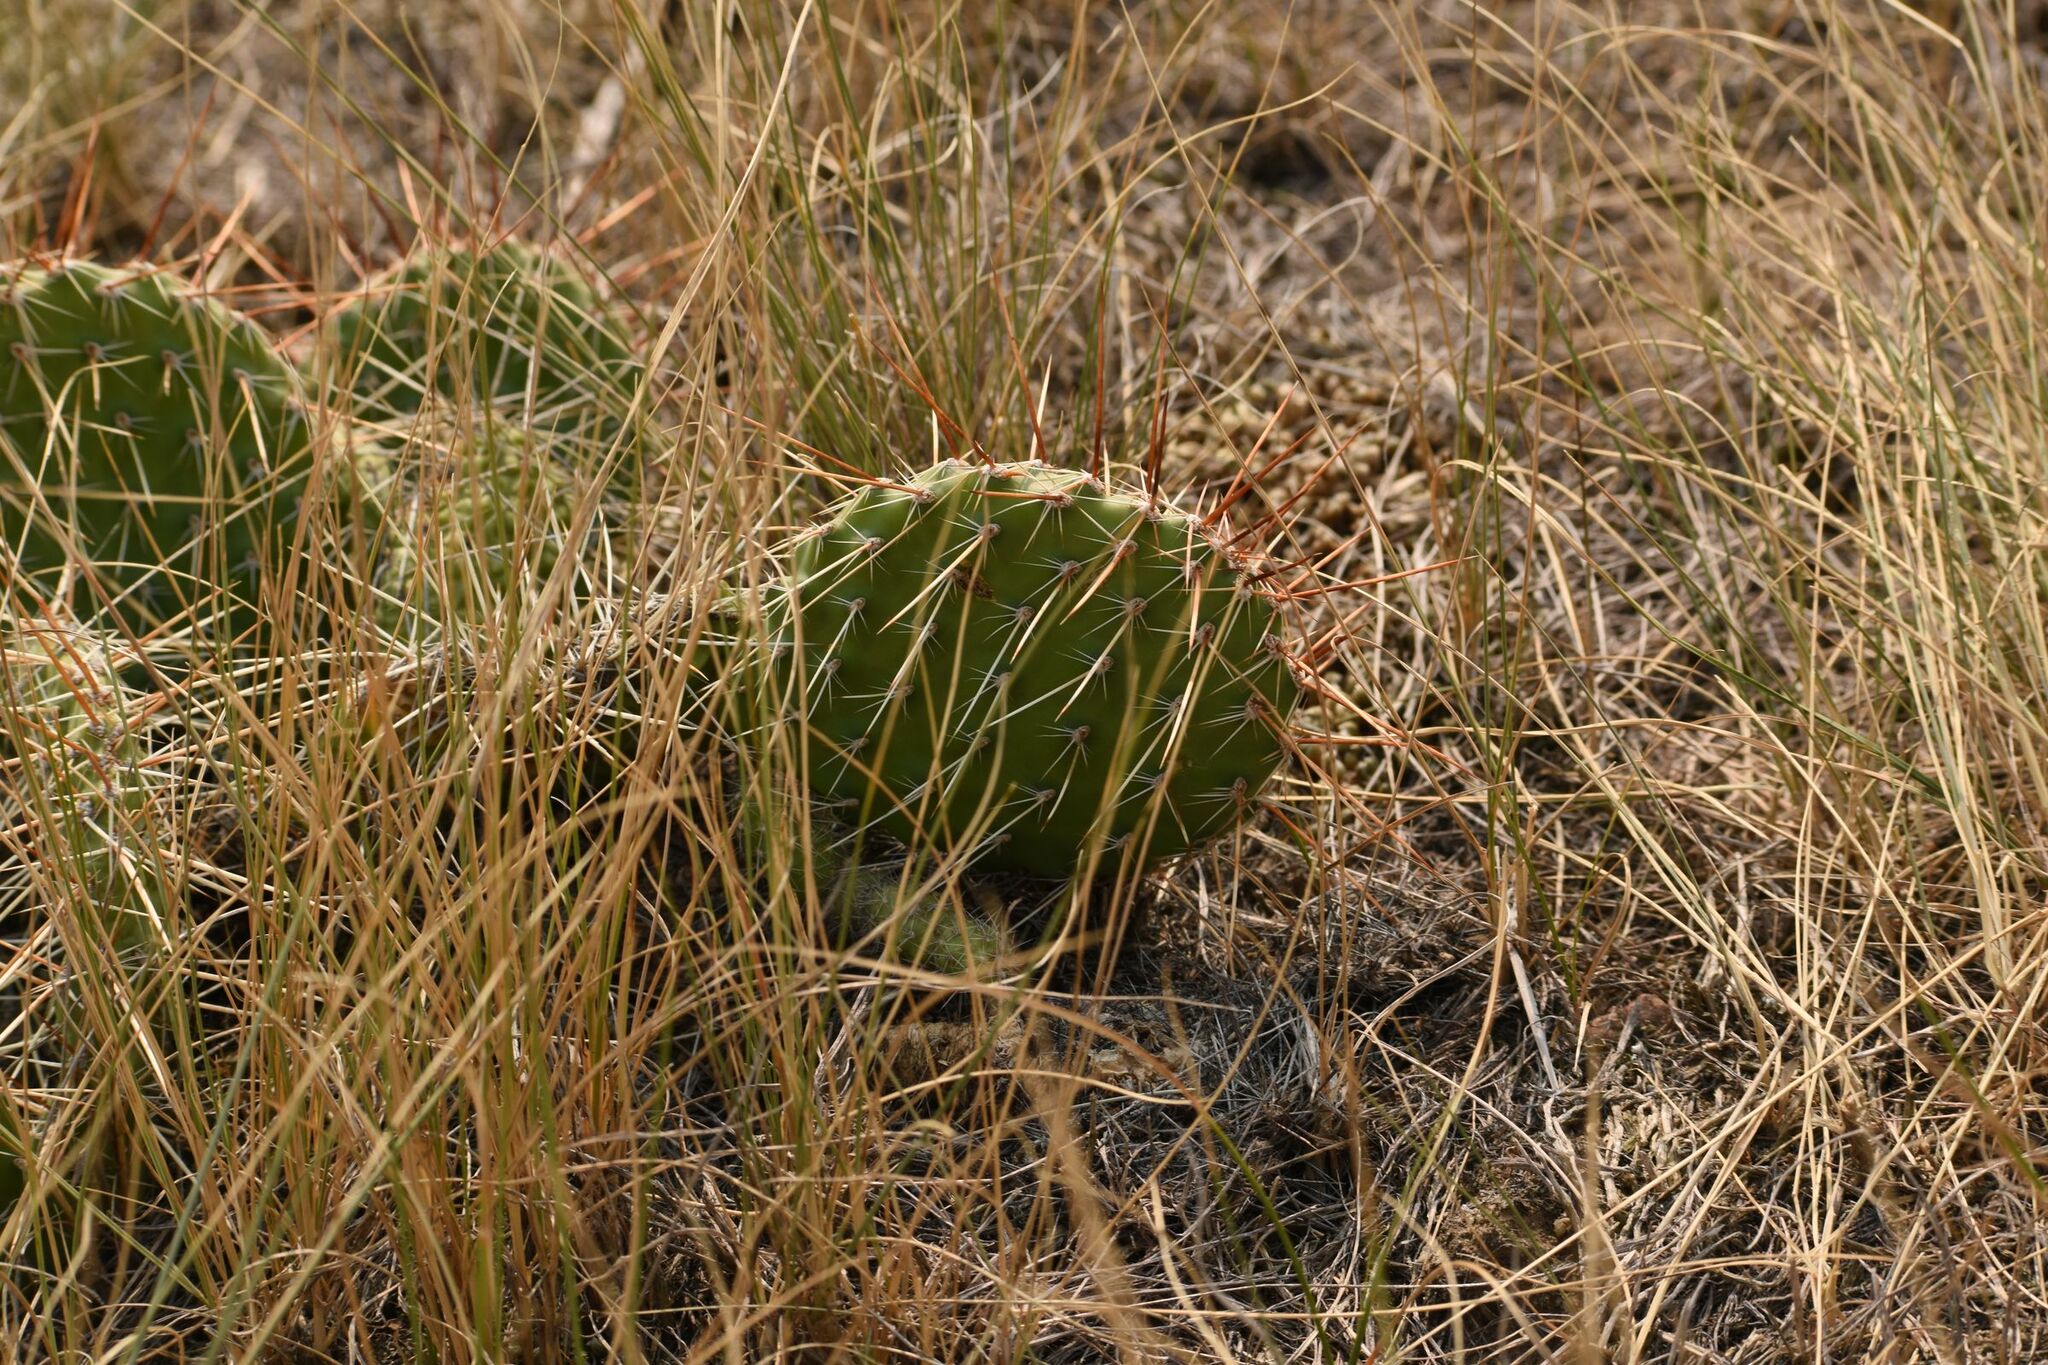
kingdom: Plantae
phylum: Tracheophyta
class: Magnoliopsida
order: Caryophyllales
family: Cactaceae
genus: Opuntia
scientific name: Opuntia polyacantha
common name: Plains prickly-pear
